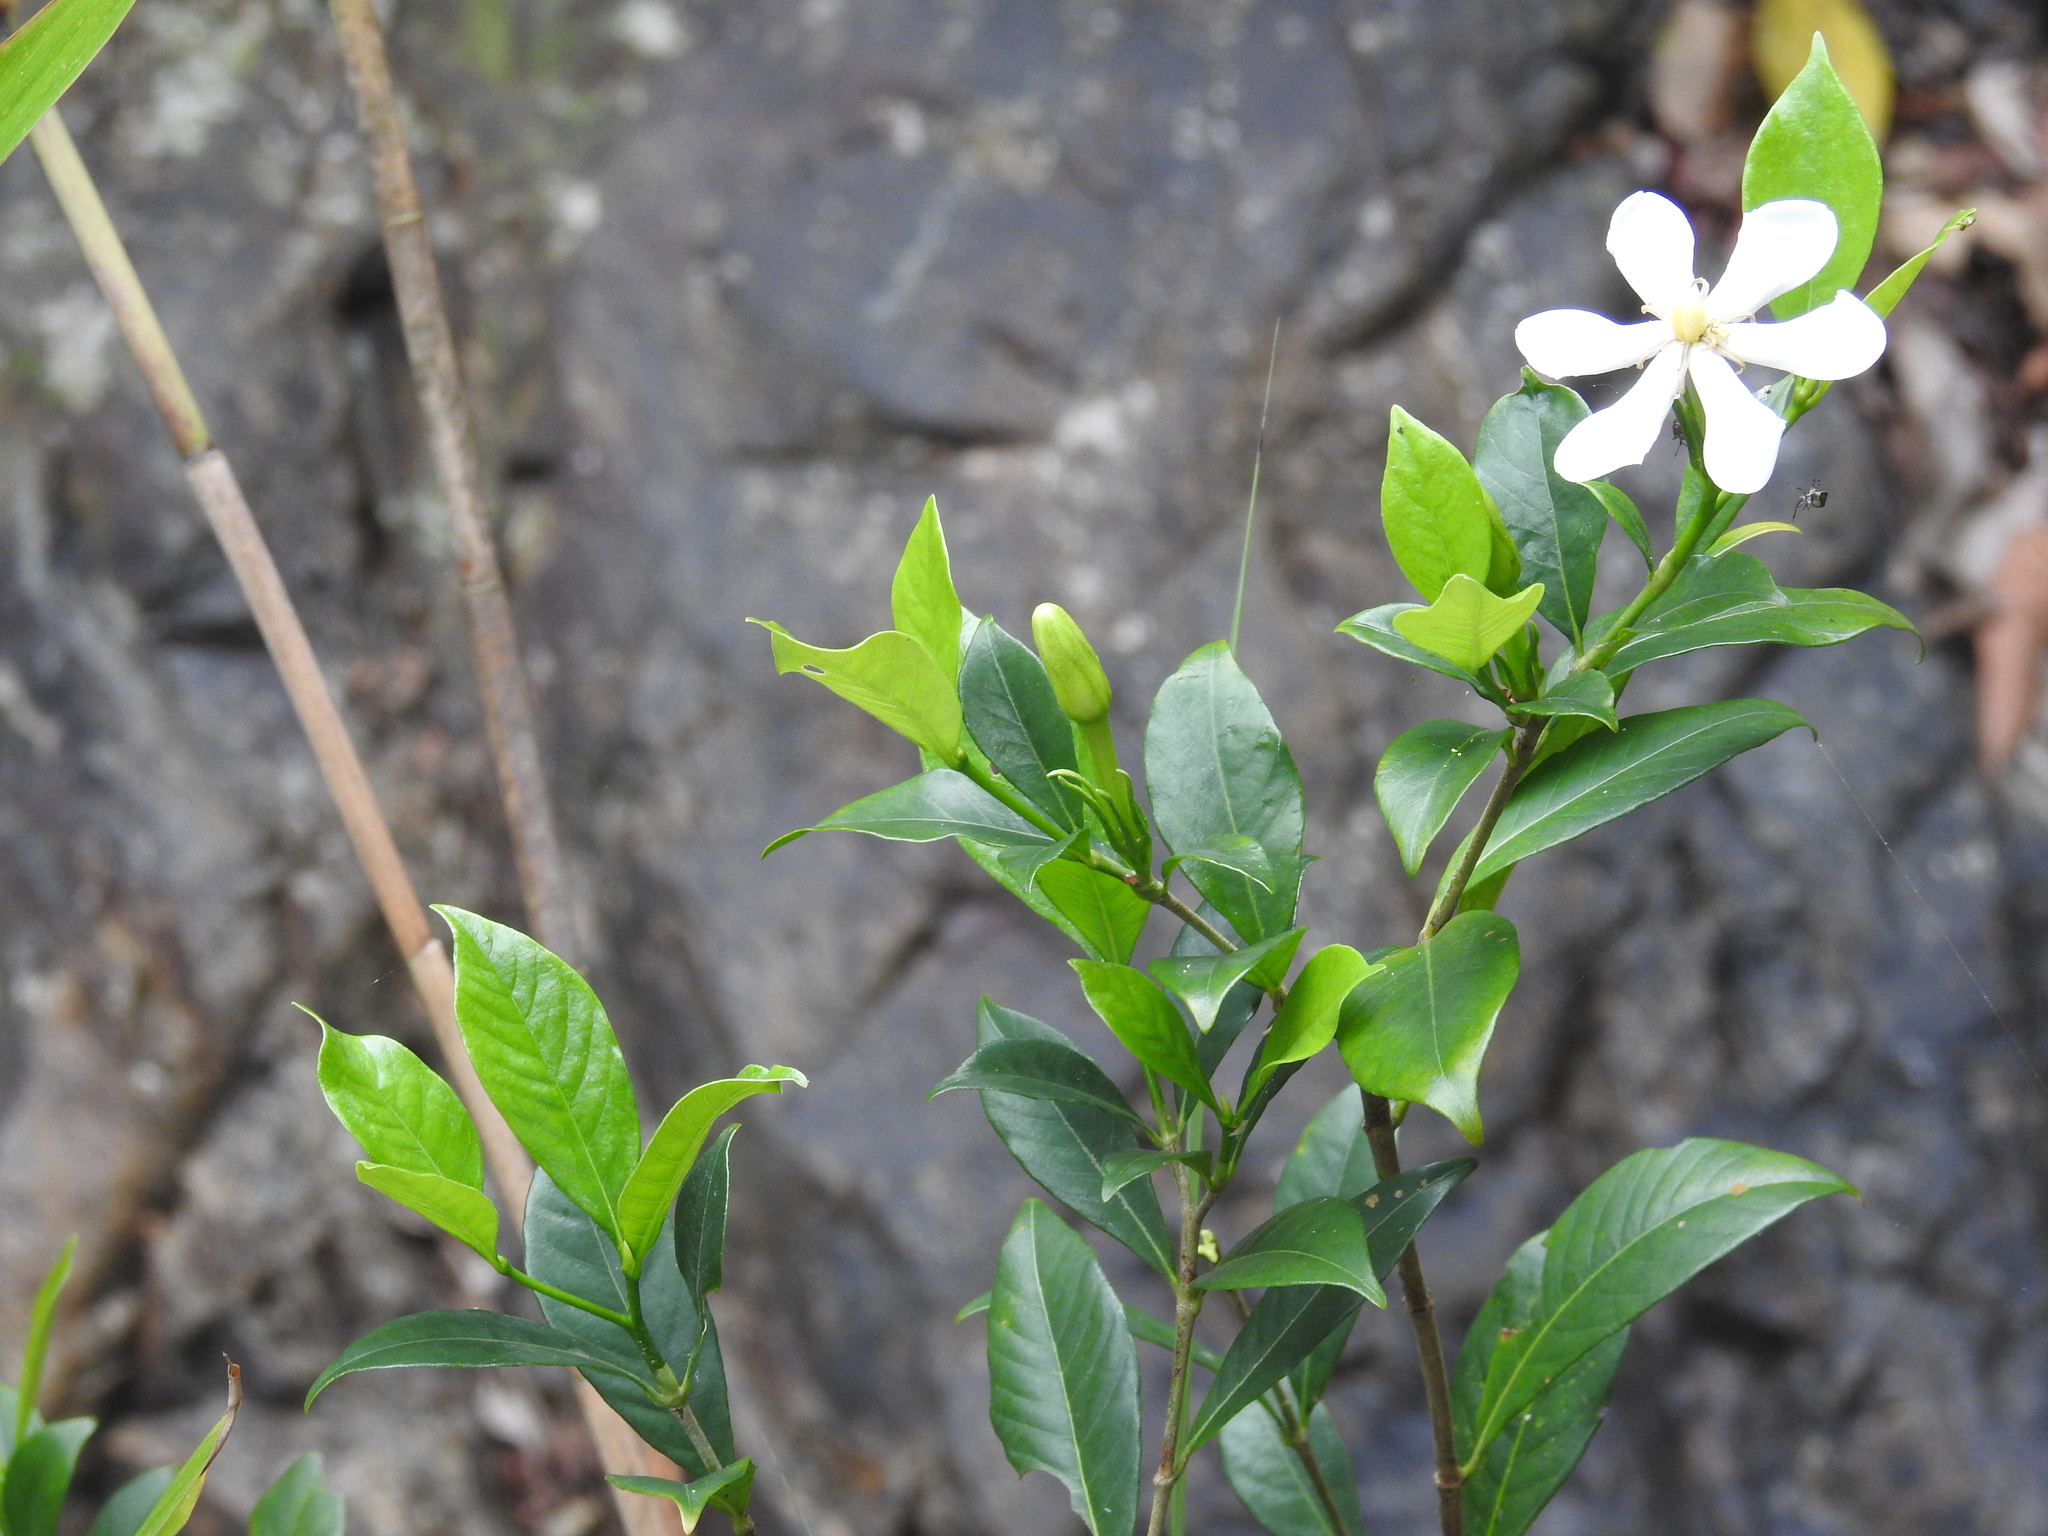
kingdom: Plantae
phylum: Tracheophyta
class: Magnoliopsida
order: Gentianales
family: Rubiaceae
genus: Gardenia
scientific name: Gardenia jasminoides
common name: Cape-jasmine
